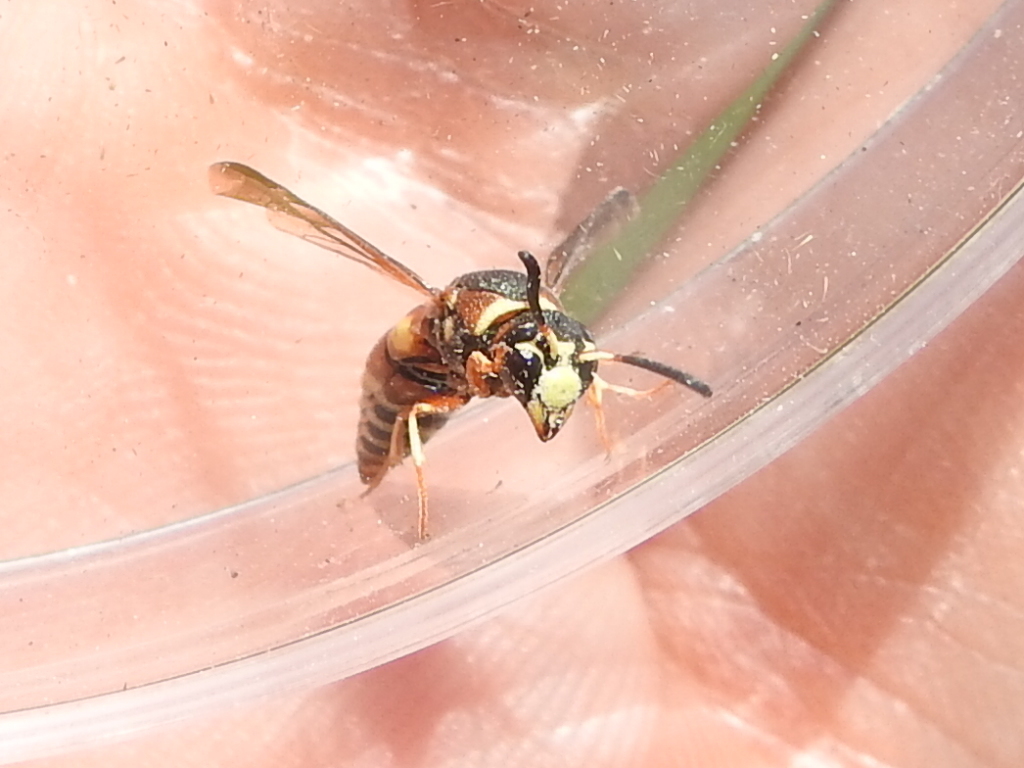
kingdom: Animalia
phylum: Arthropoda
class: Insecta
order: Hymenoptera
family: Eumenidae
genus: Euodynerus
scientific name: Euodynerus hidalgo
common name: Wasp
